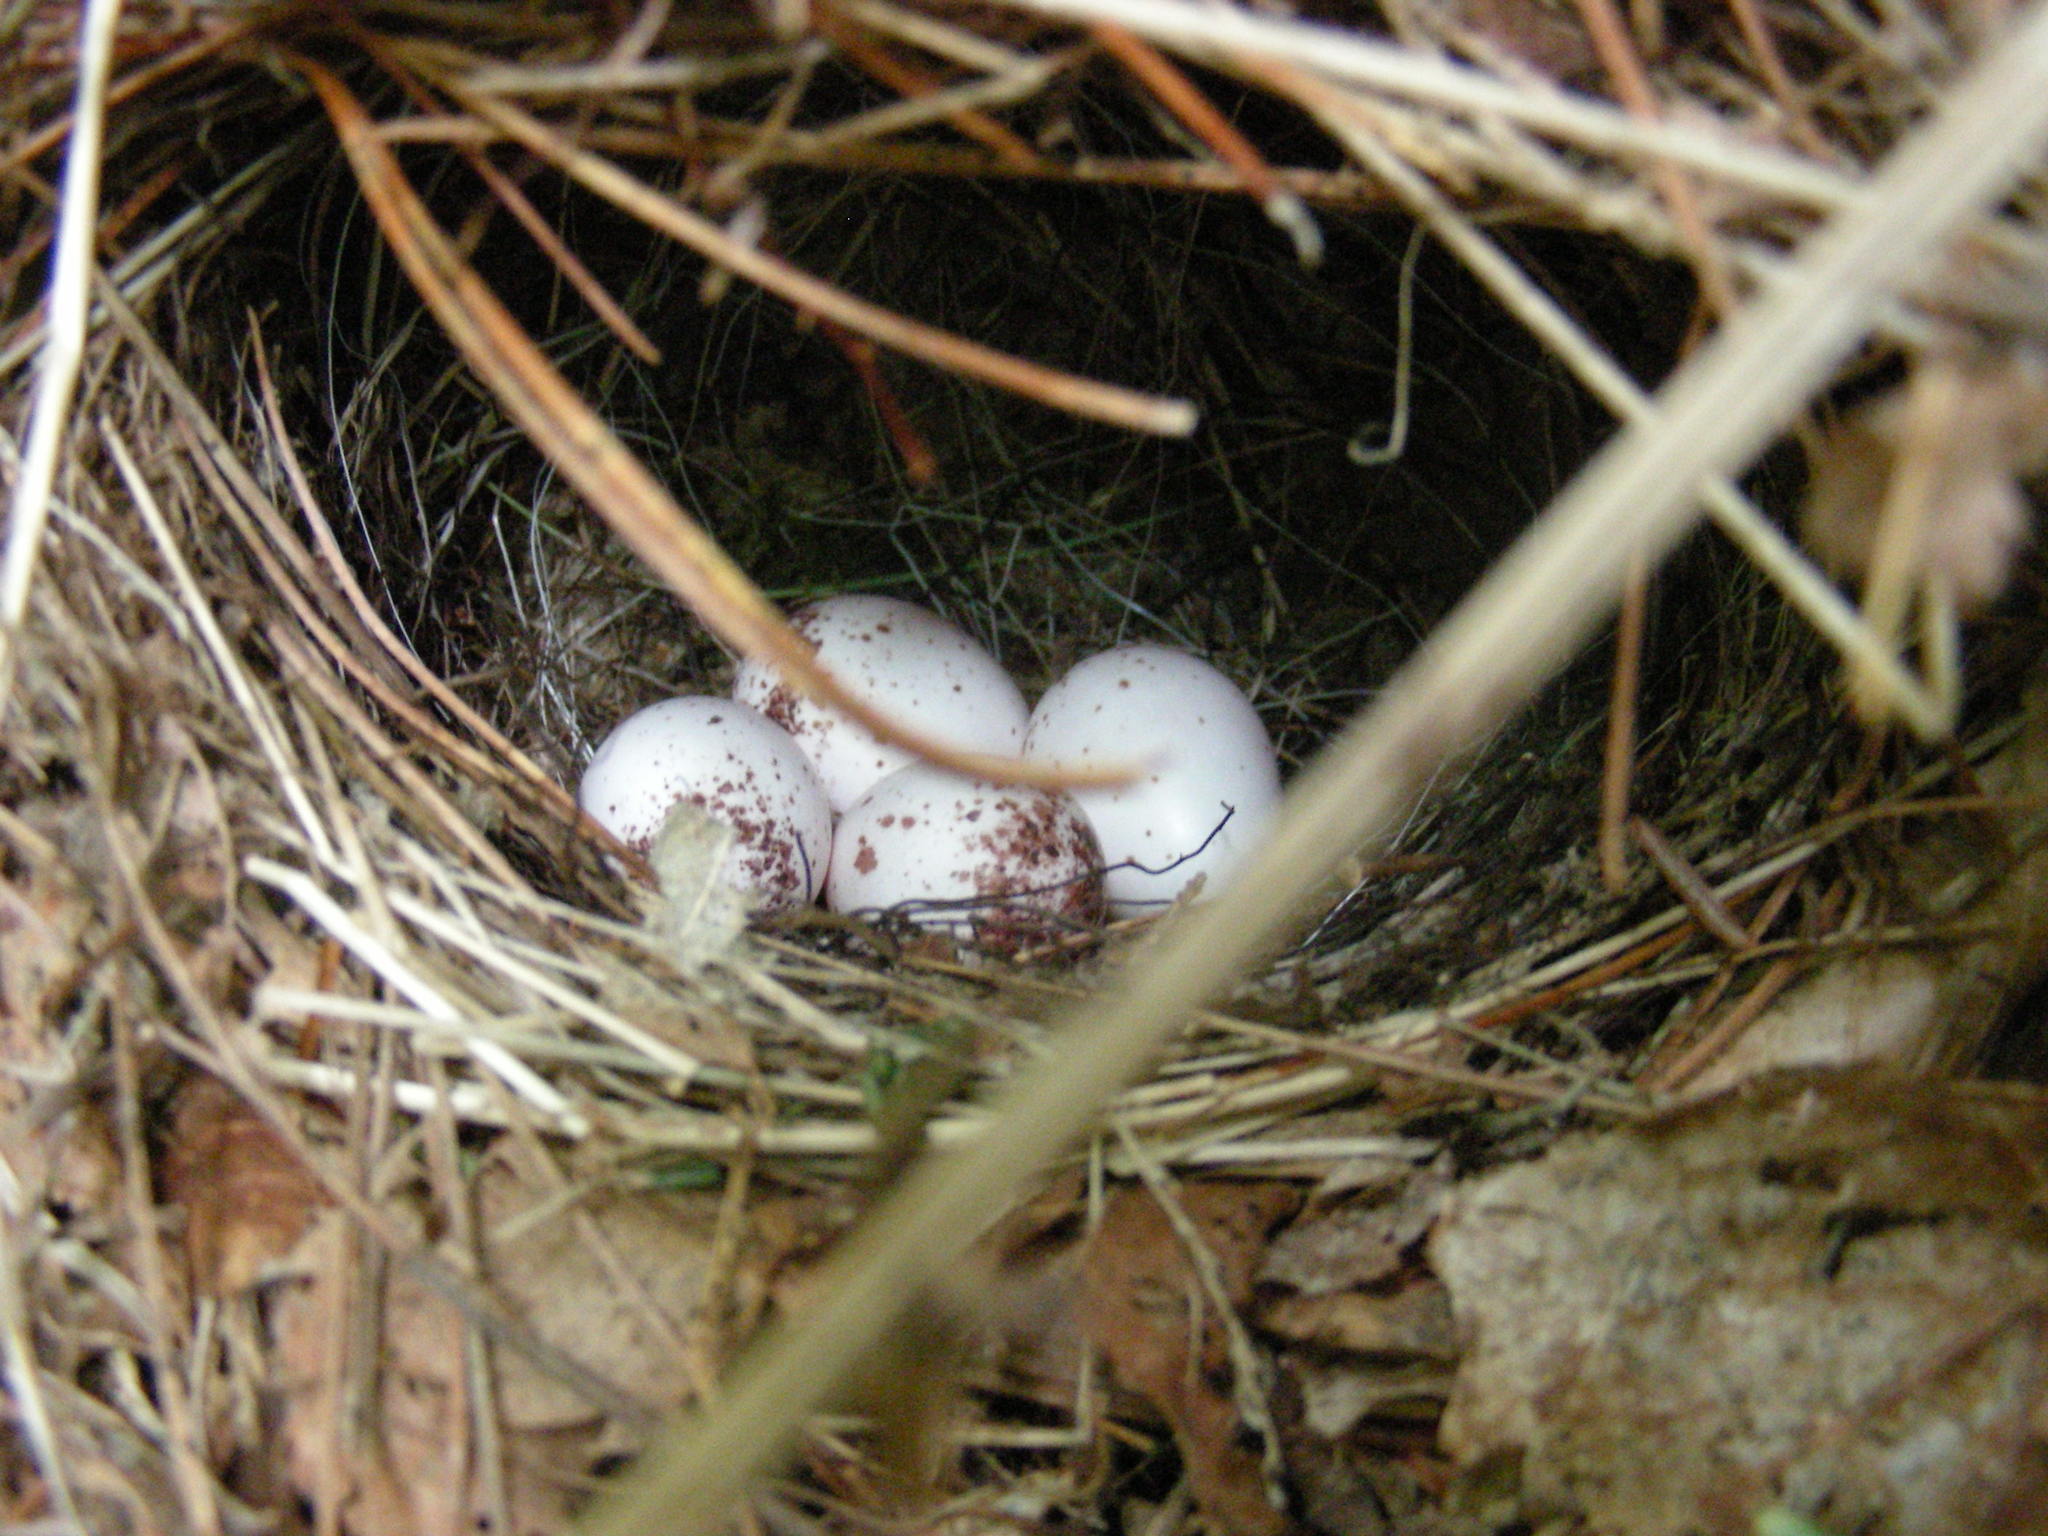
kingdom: Animalia
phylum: Chordata
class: Aves
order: Passeriformes
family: Parulidae
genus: Seiurus
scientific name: Seiurus aurocapilla
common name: Ovenbird
